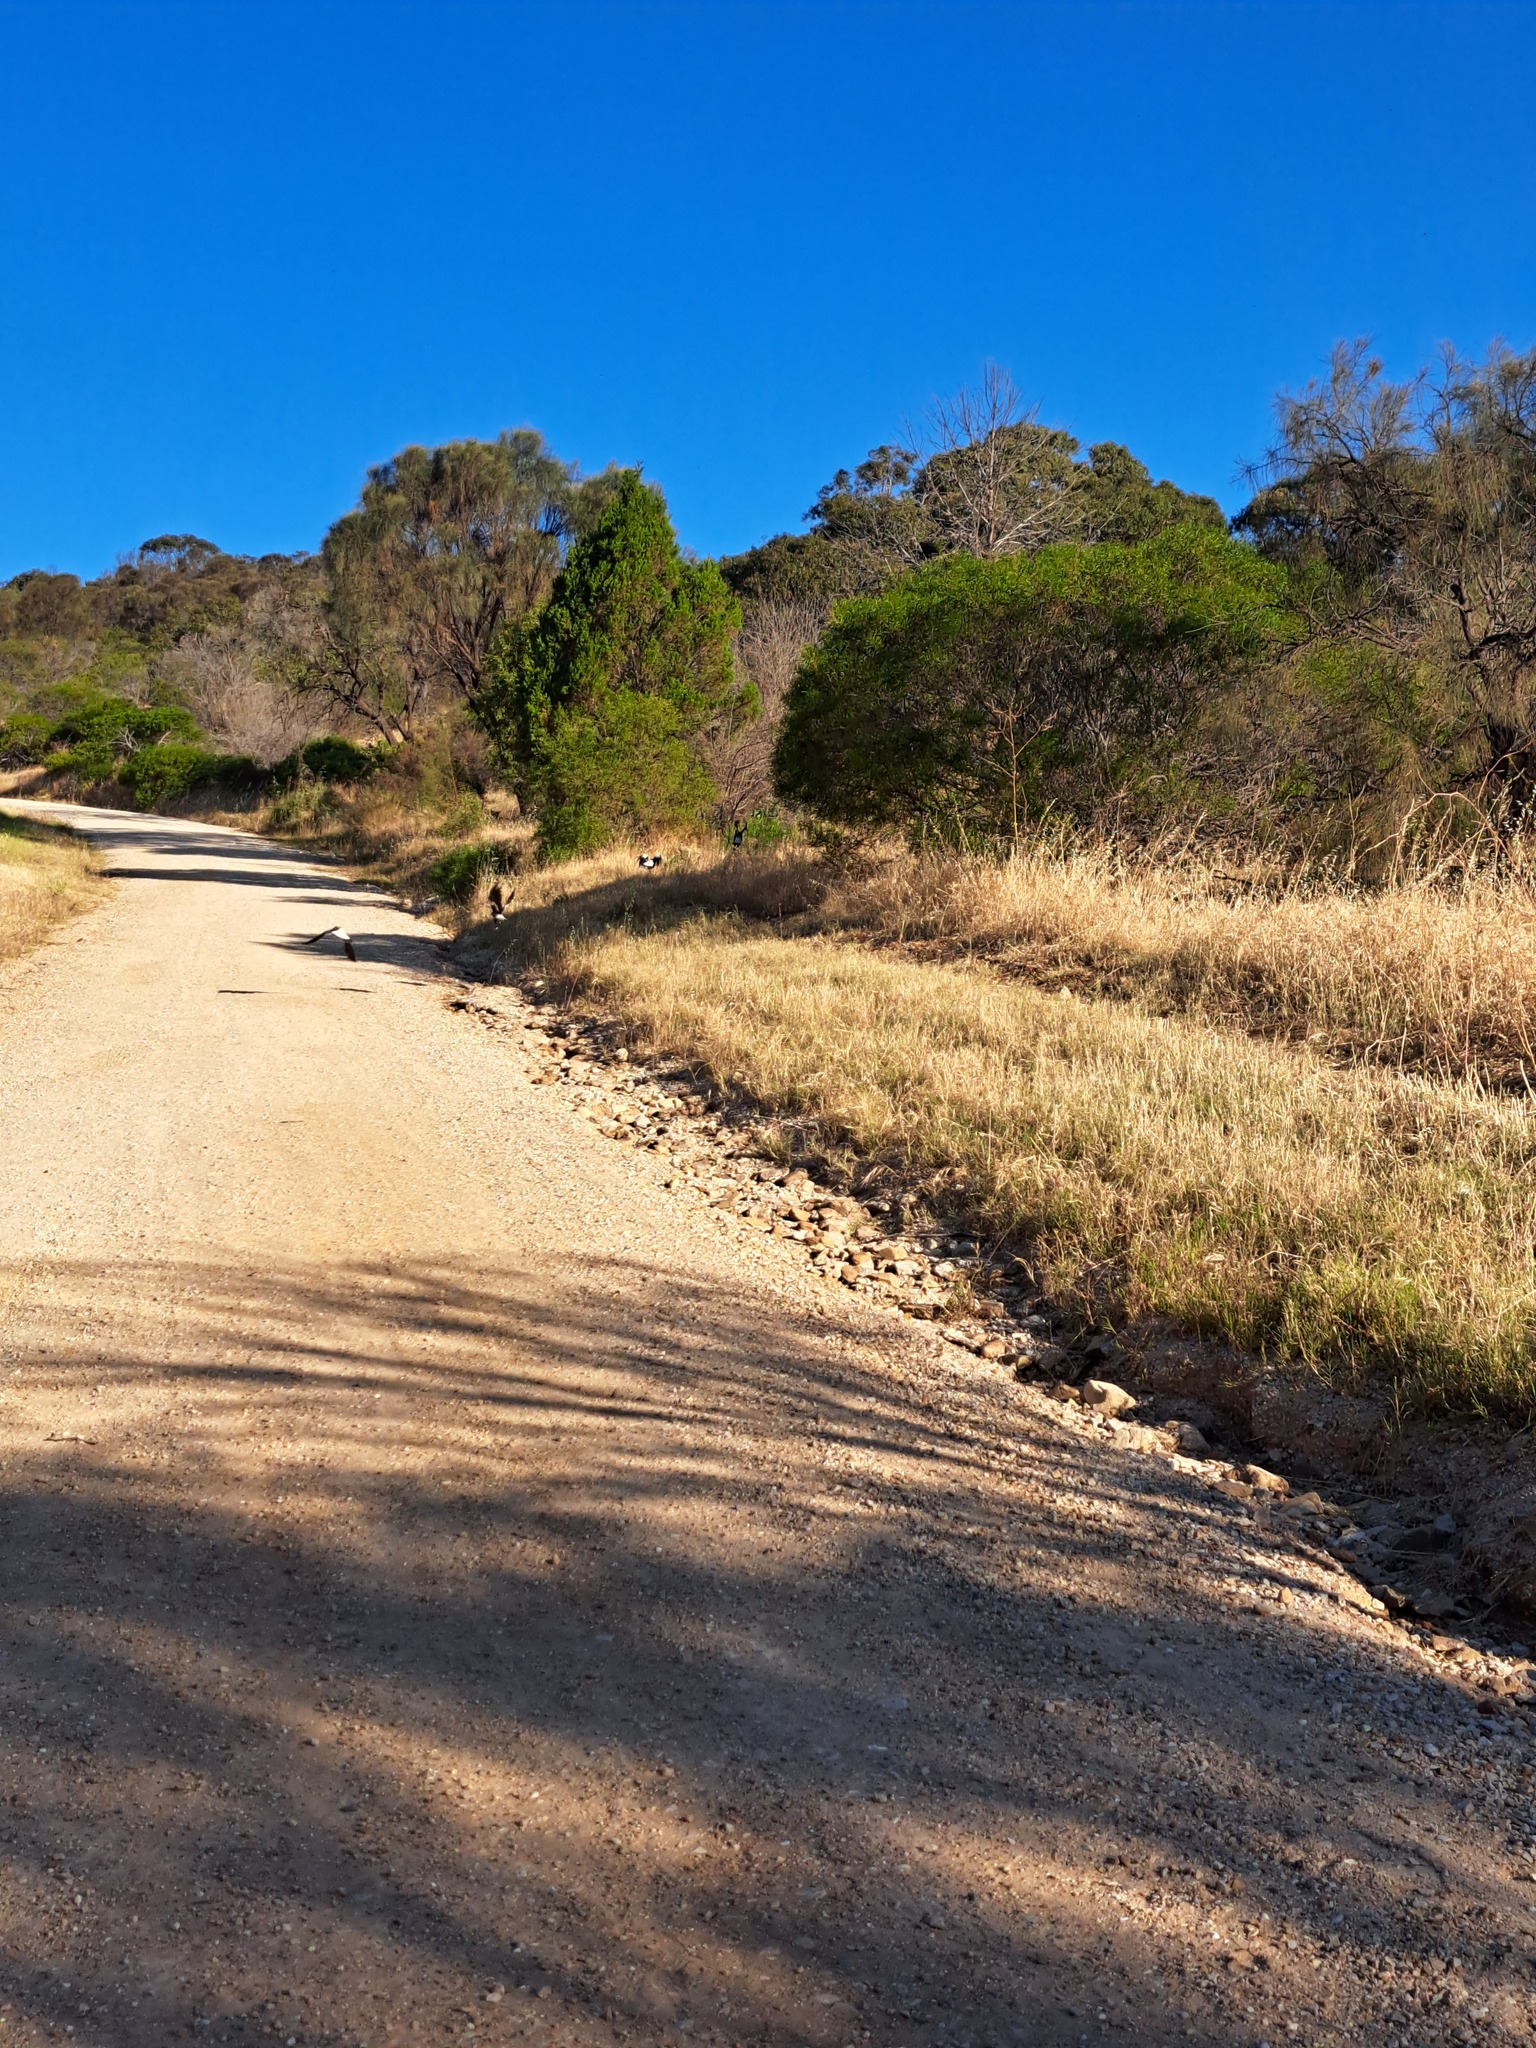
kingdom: Animalia
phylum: Chordata
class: Aves
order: Passeriformes
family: Cracticidae
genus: Gymnorhina
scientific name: Gymnorhina tibicen
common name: Australian magpie
